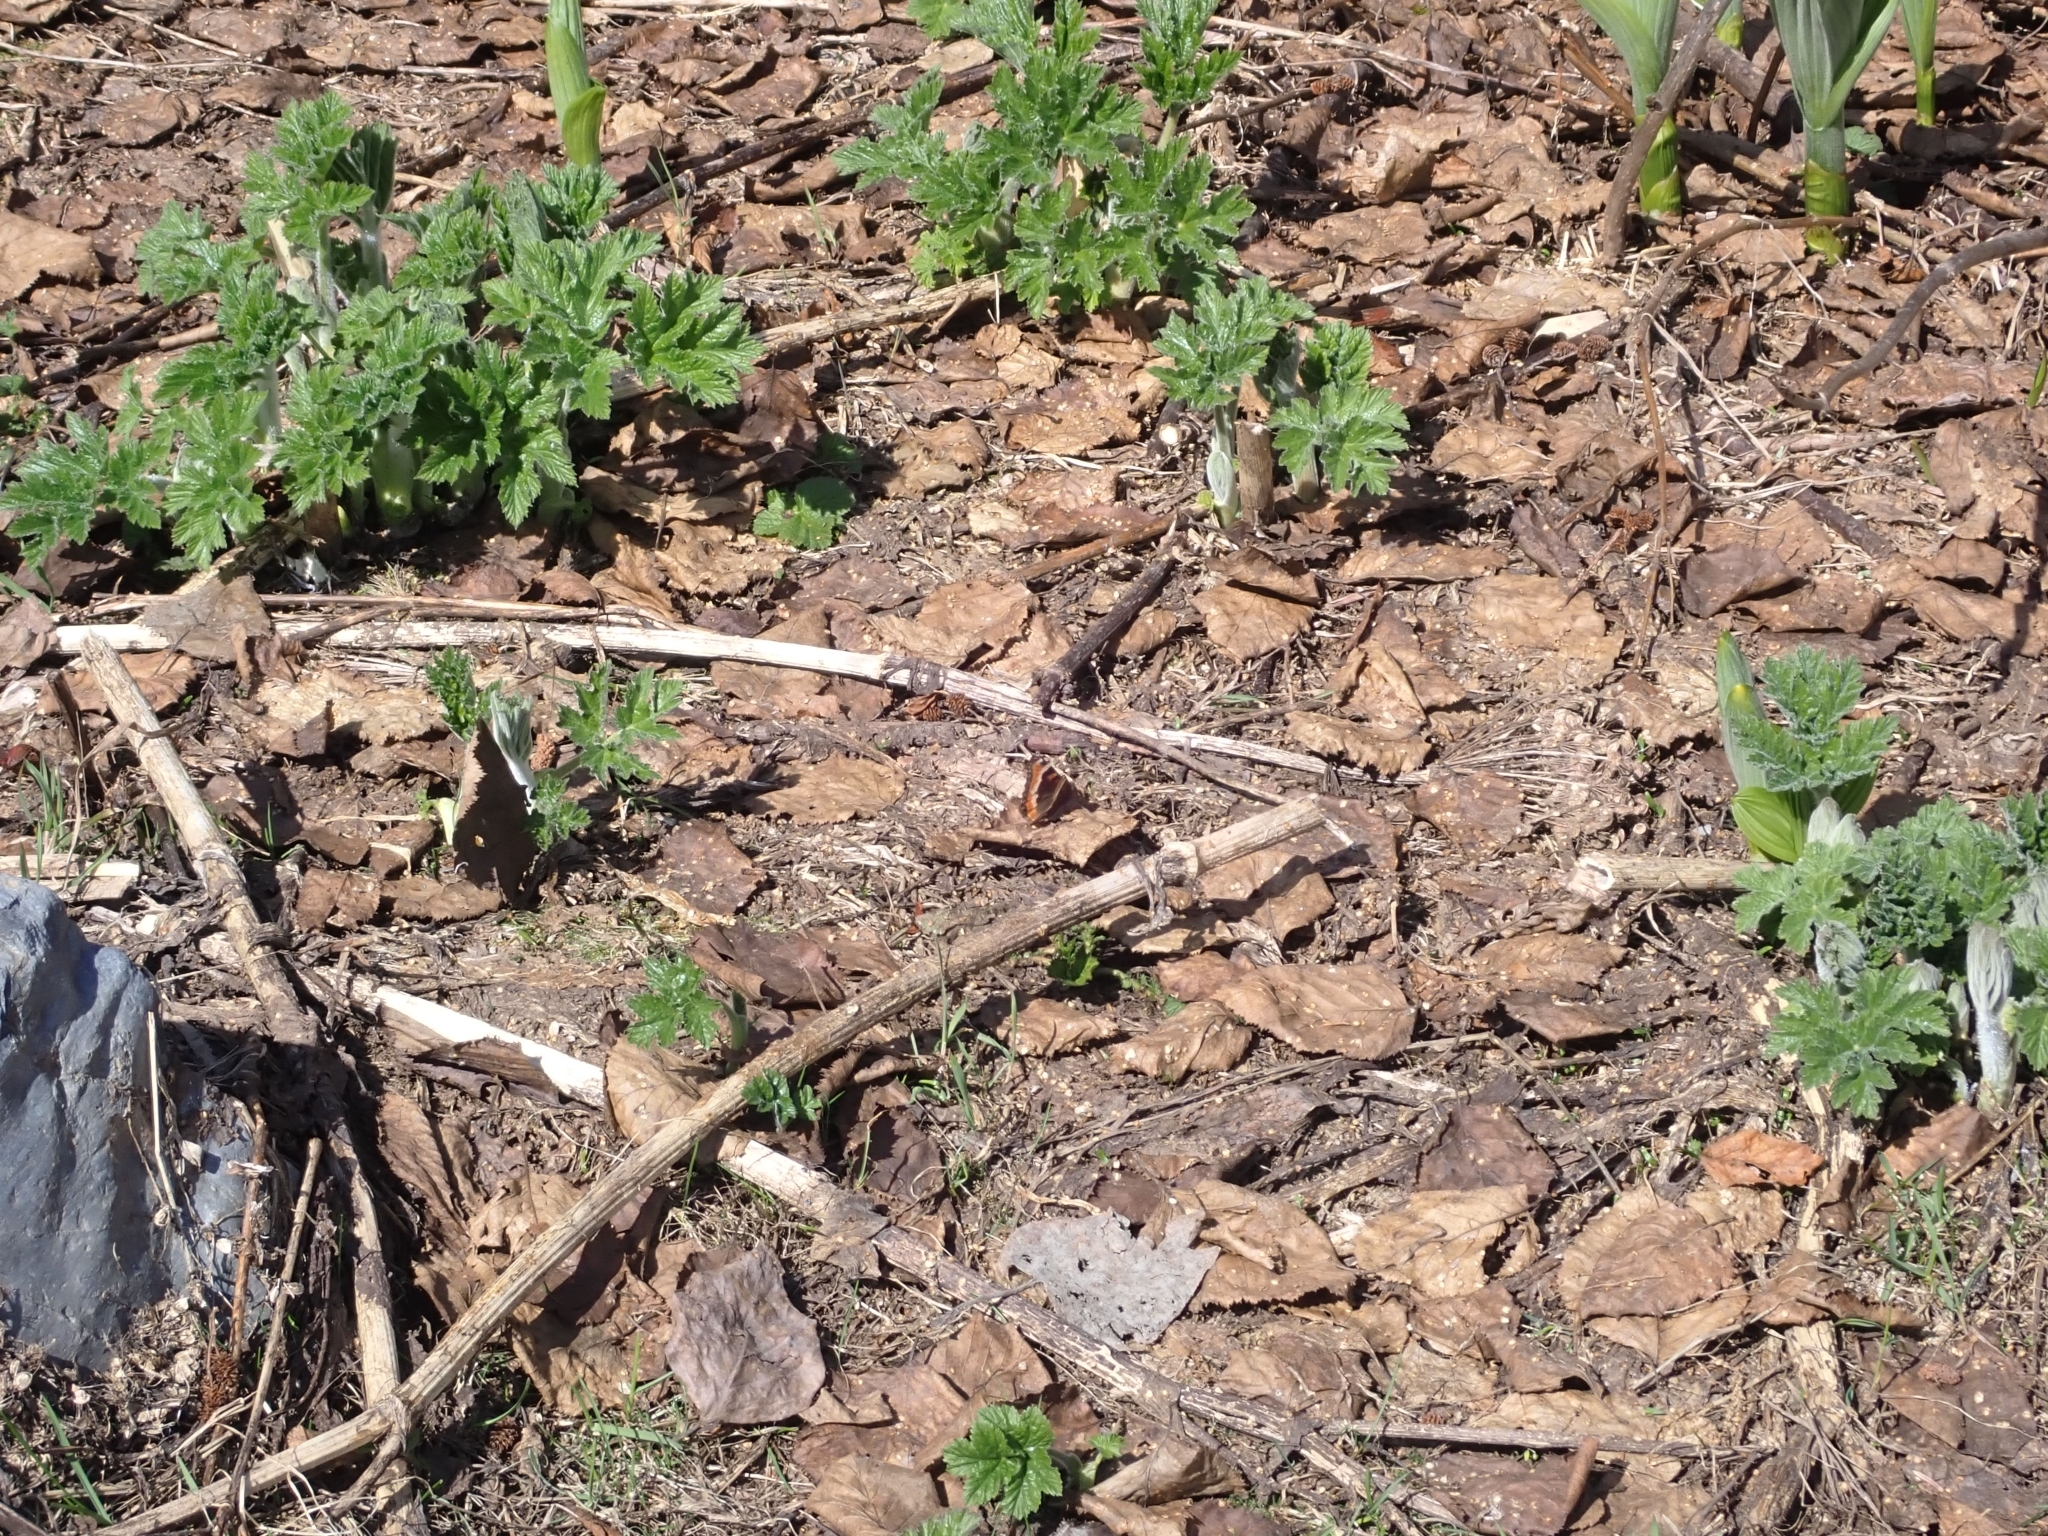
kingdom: Animalia
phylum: Arthropoda
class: Insecta
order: Lepidoptera
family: Nymphalidae
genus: Aglais
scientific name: Aglais milberti
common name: Milbert's tortoiseshell
